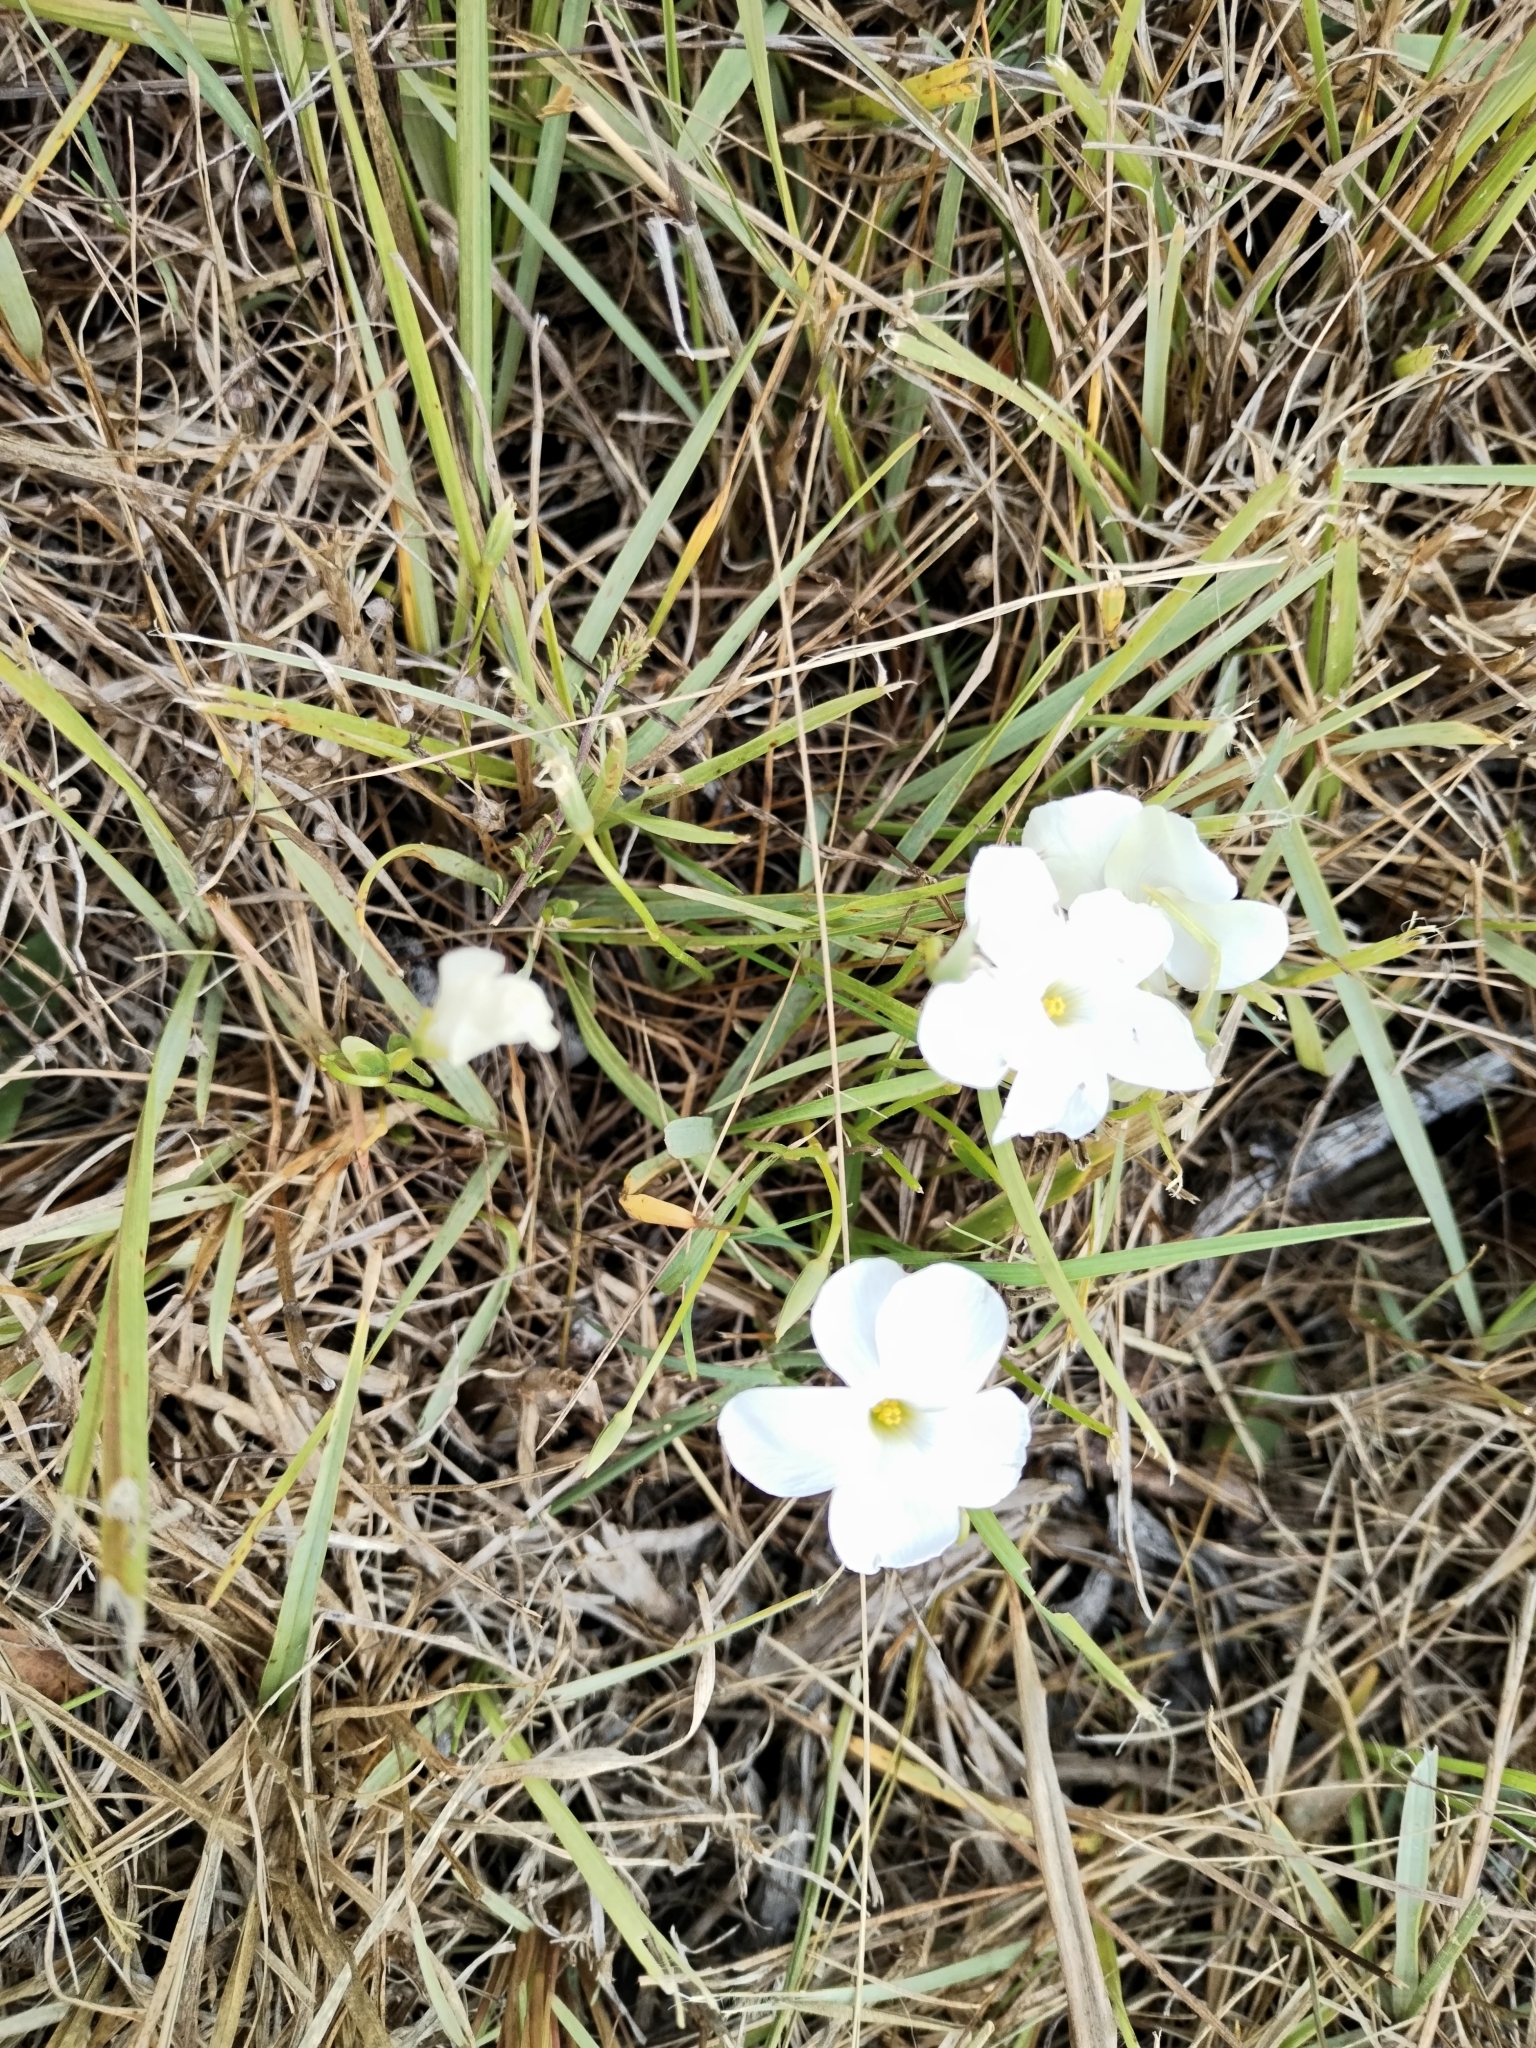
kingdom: Plantae
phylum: Tracheophyta
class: Magnoliopsida
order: Oxalidales
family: Oxalidaceae
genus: Oxalis
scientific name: Oxalis smithiana
